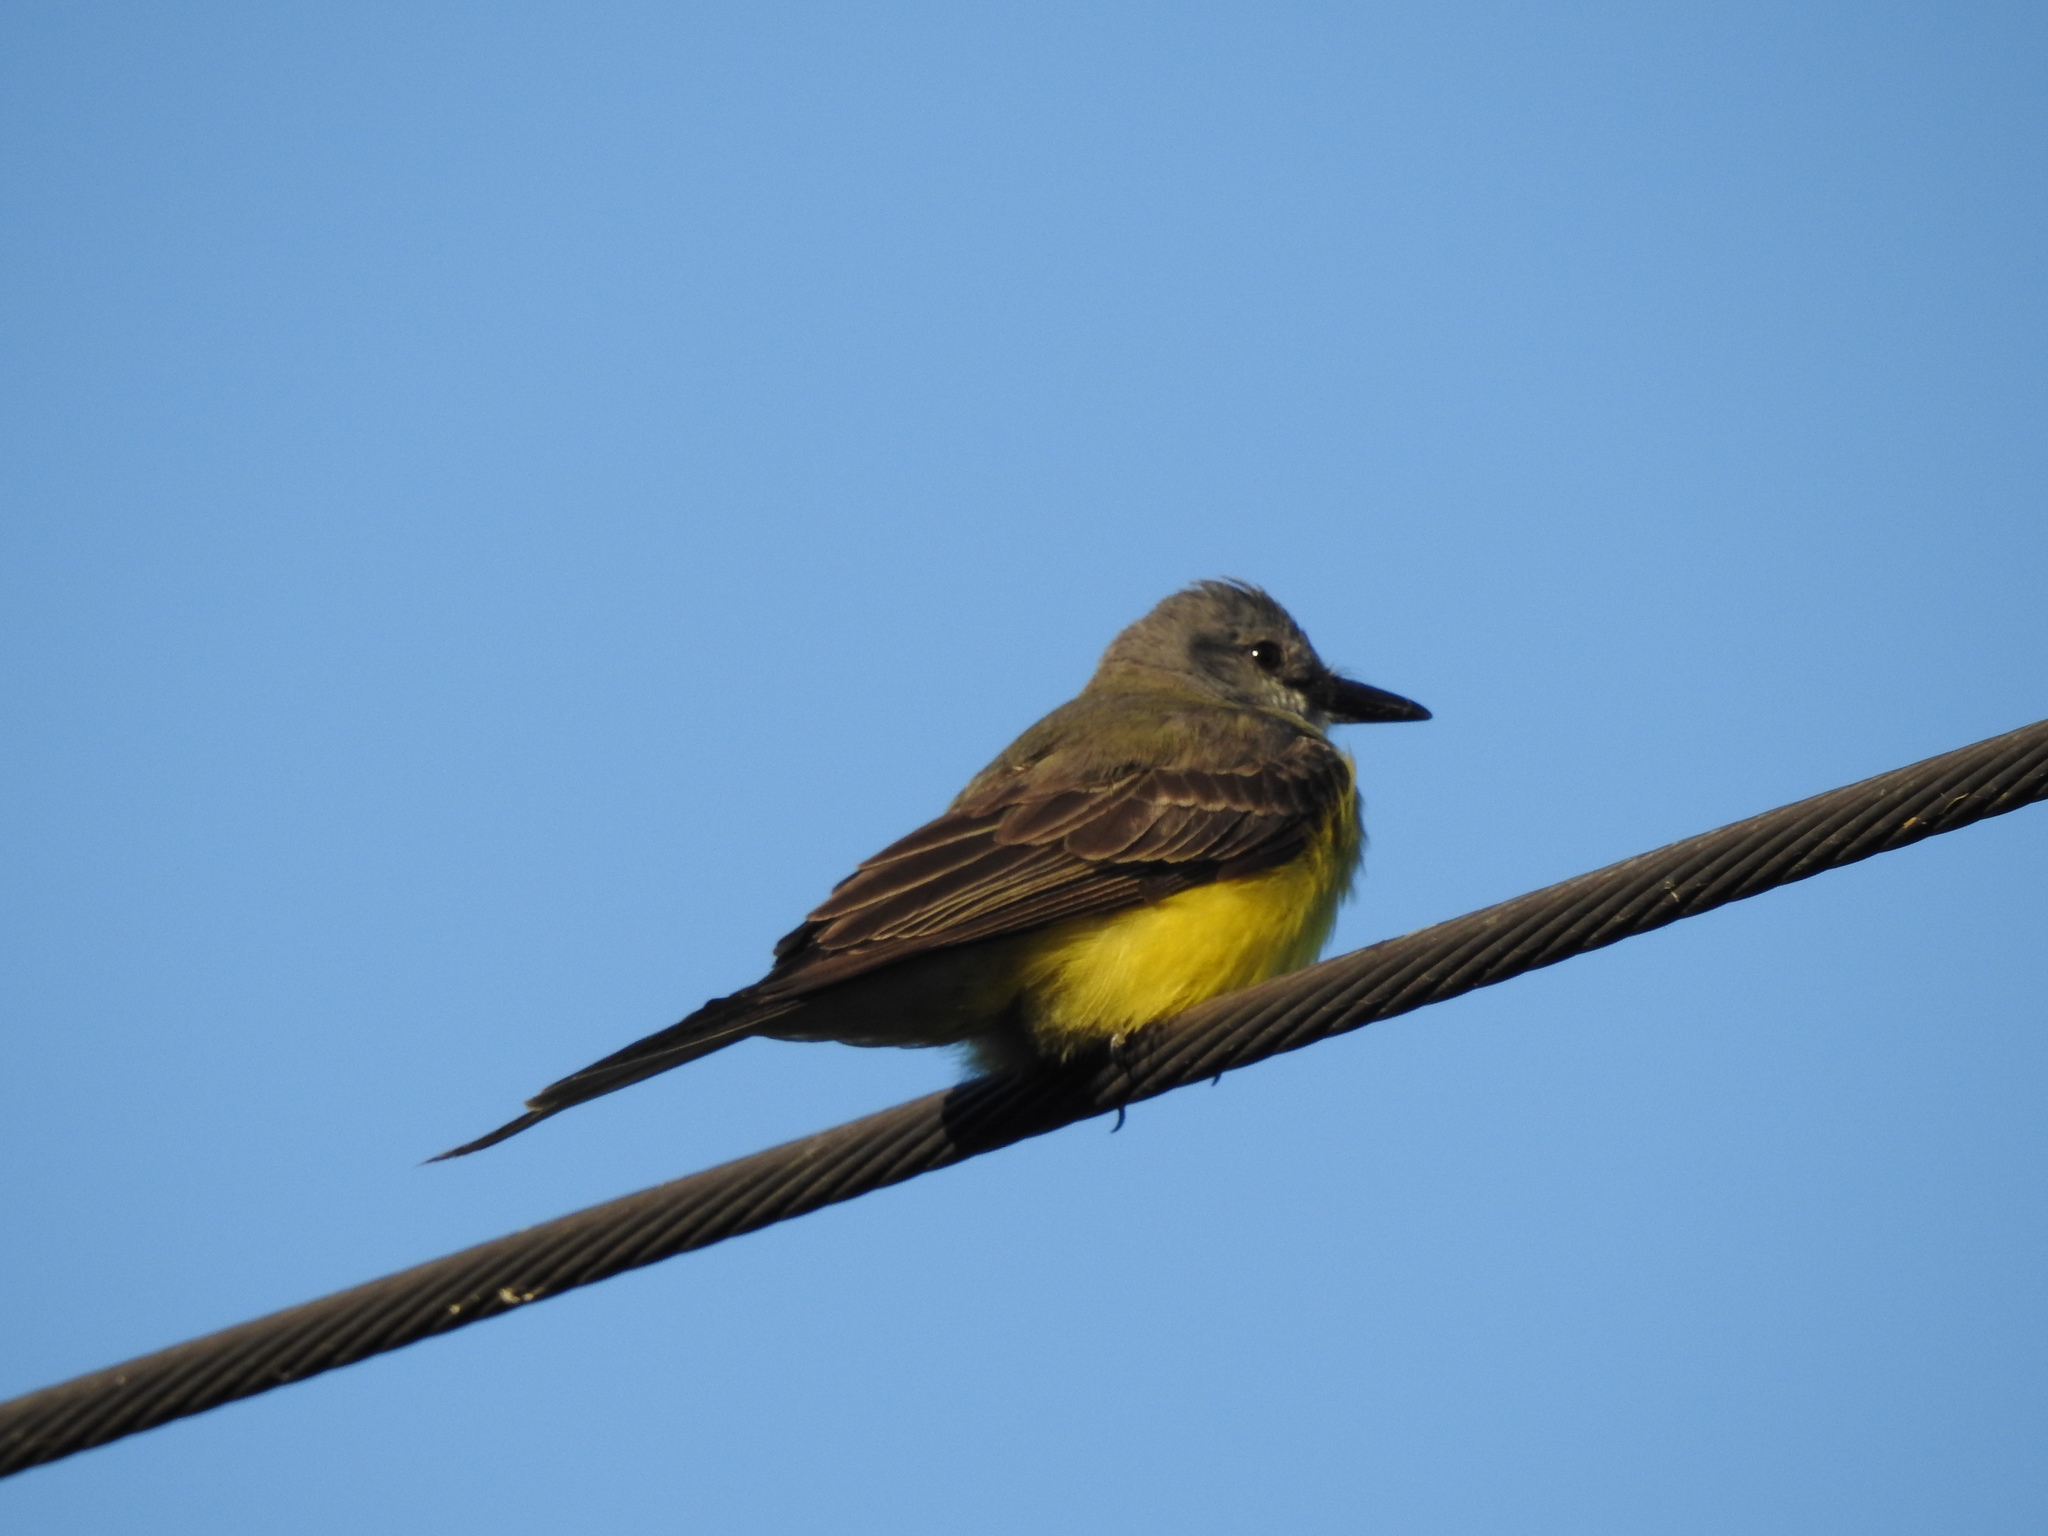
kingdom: Animalia
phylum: Chordata
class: Aves
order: Passeriformes
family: Tyrannidae
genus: Tyrannus
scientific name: Tyrannus melancholicus
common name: Tropical kingbird
